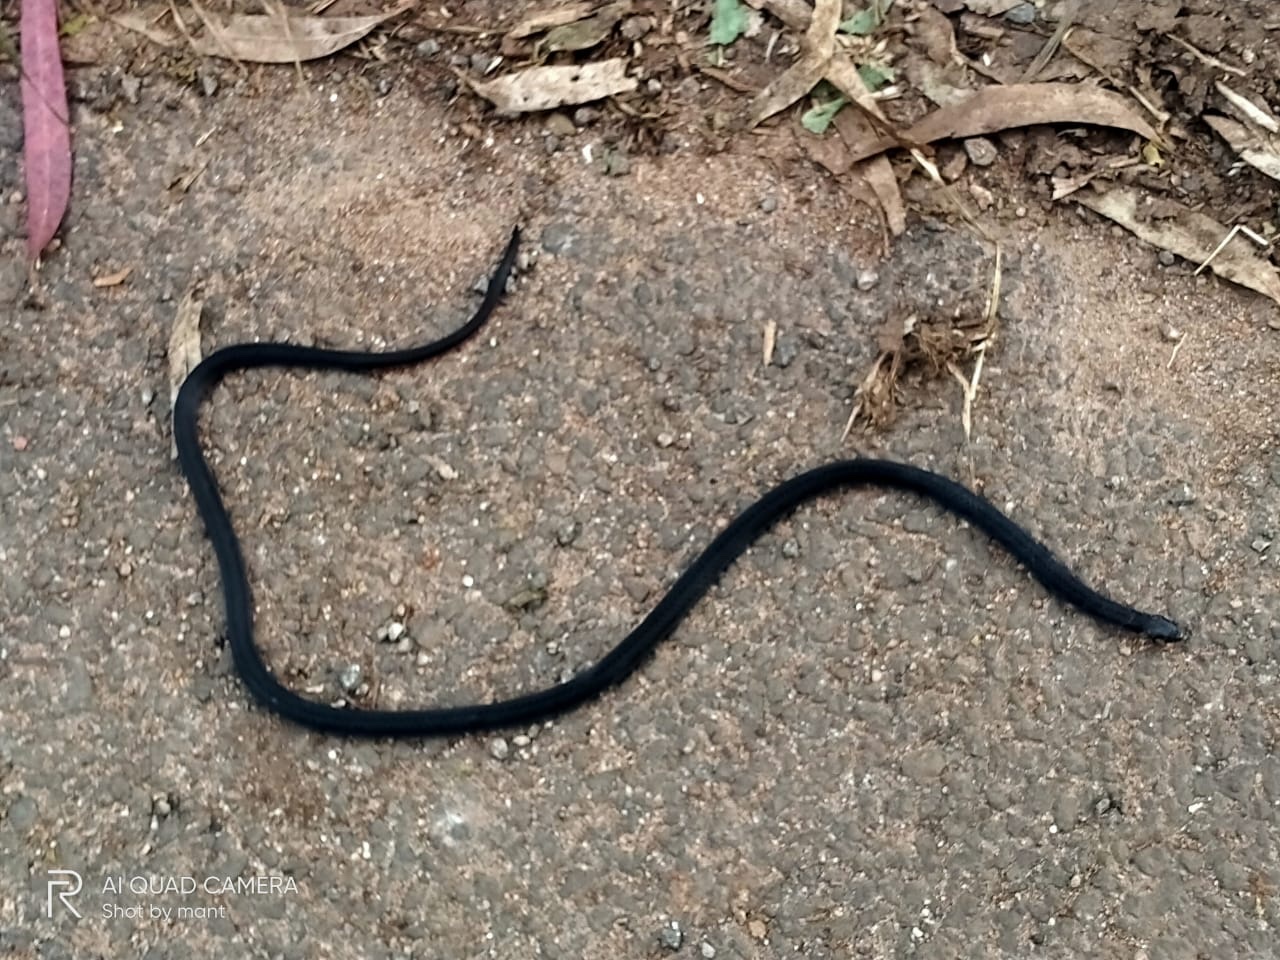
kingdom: Animalia
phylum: Chordata
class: Squamata
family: Elapidae
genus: Calliophis
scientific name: Calliophis nigrescens
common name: Black coral snake
